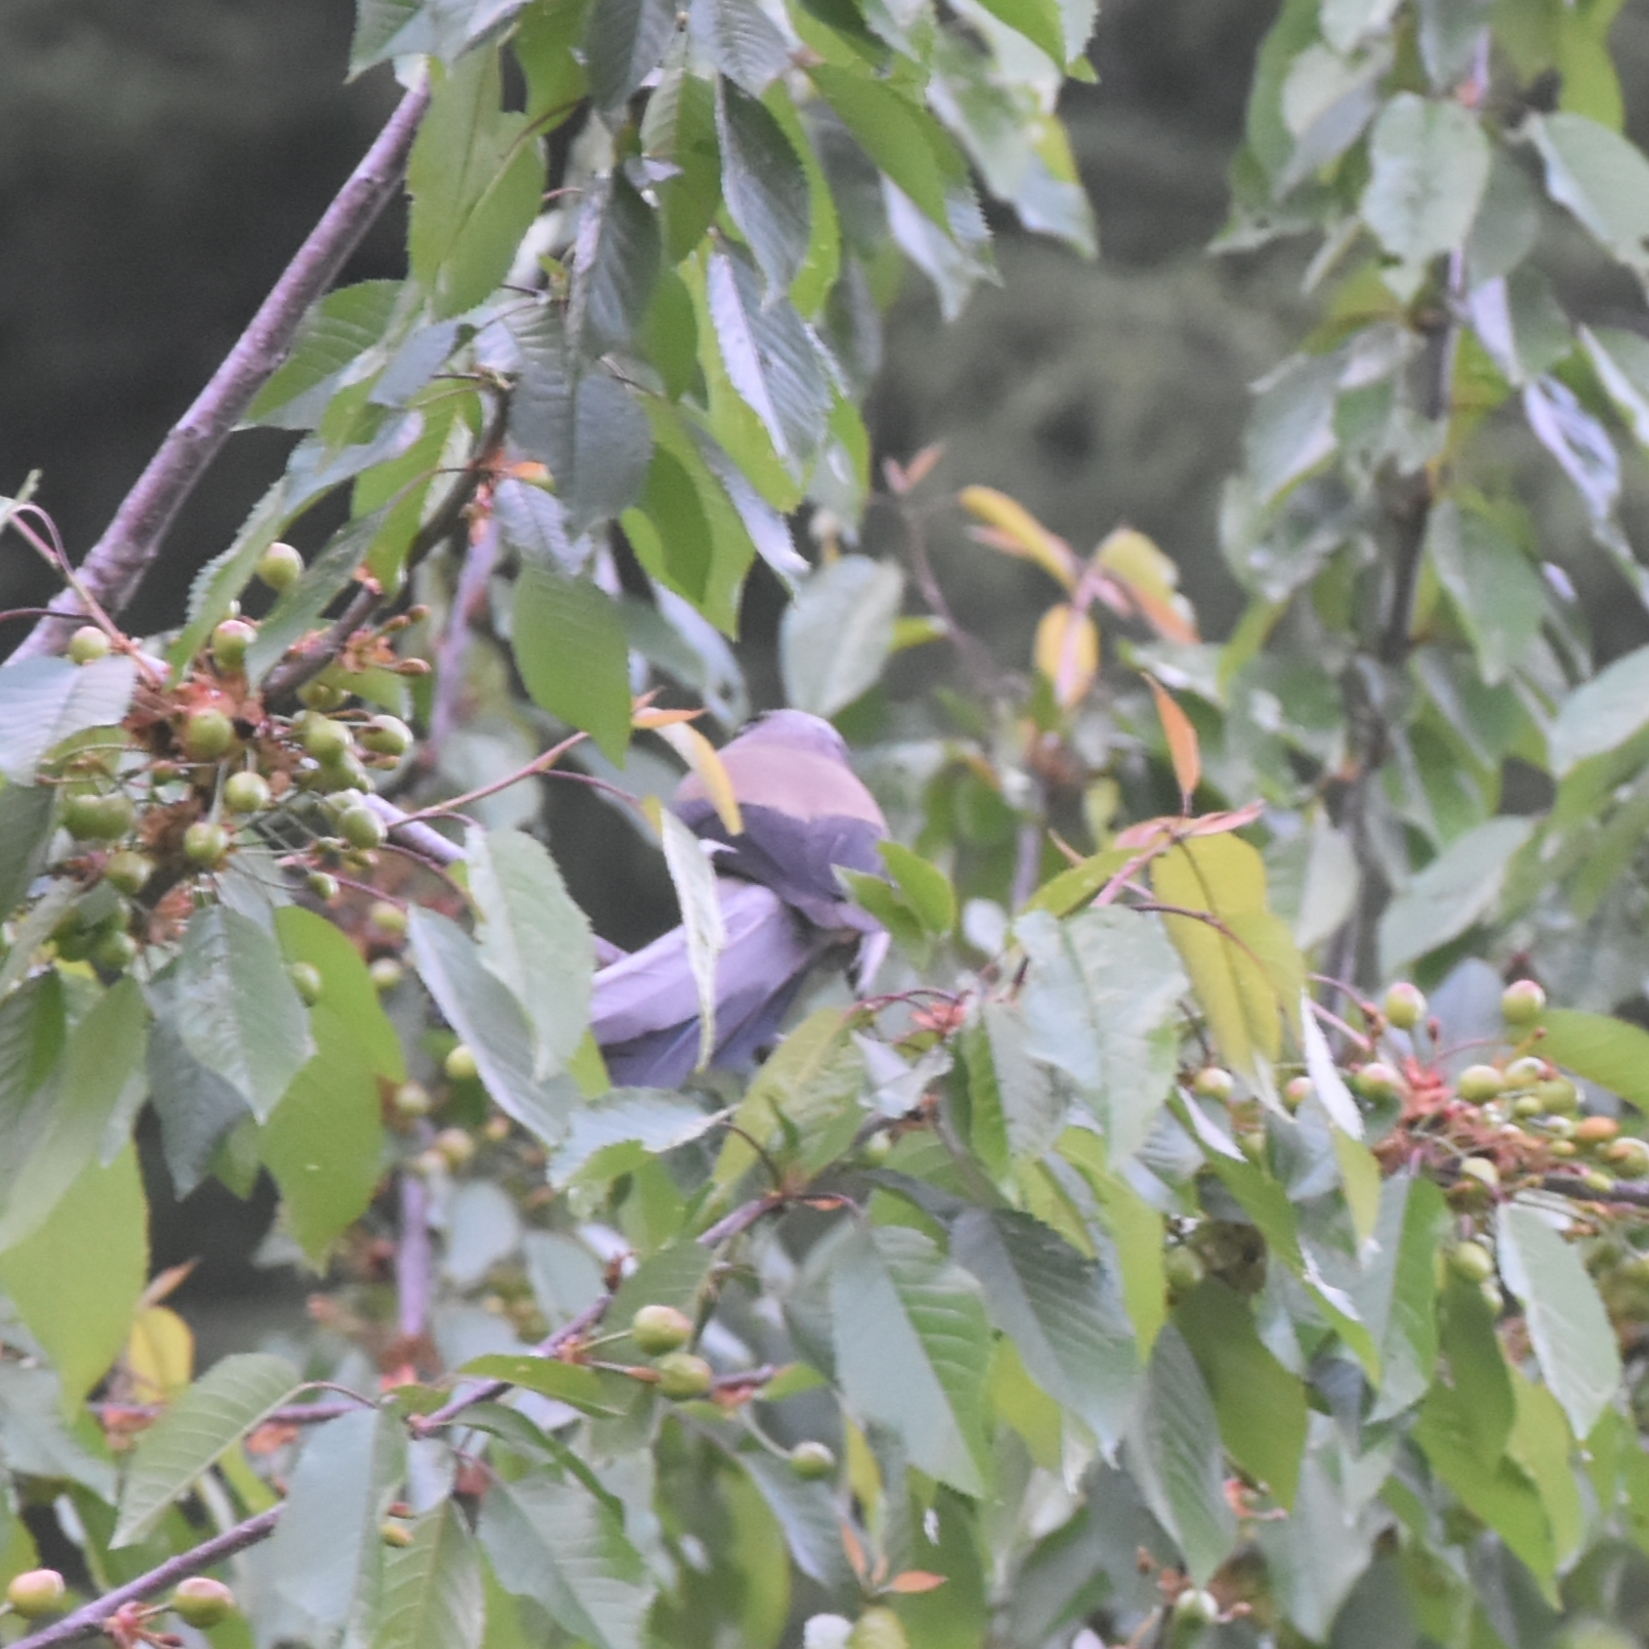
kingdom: Animalia
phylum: Chordata
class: Aves
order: Passeriformes
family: Corvidae
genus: Dendrocitta
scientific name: Dendrocitta formosae
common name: Grey treepie
